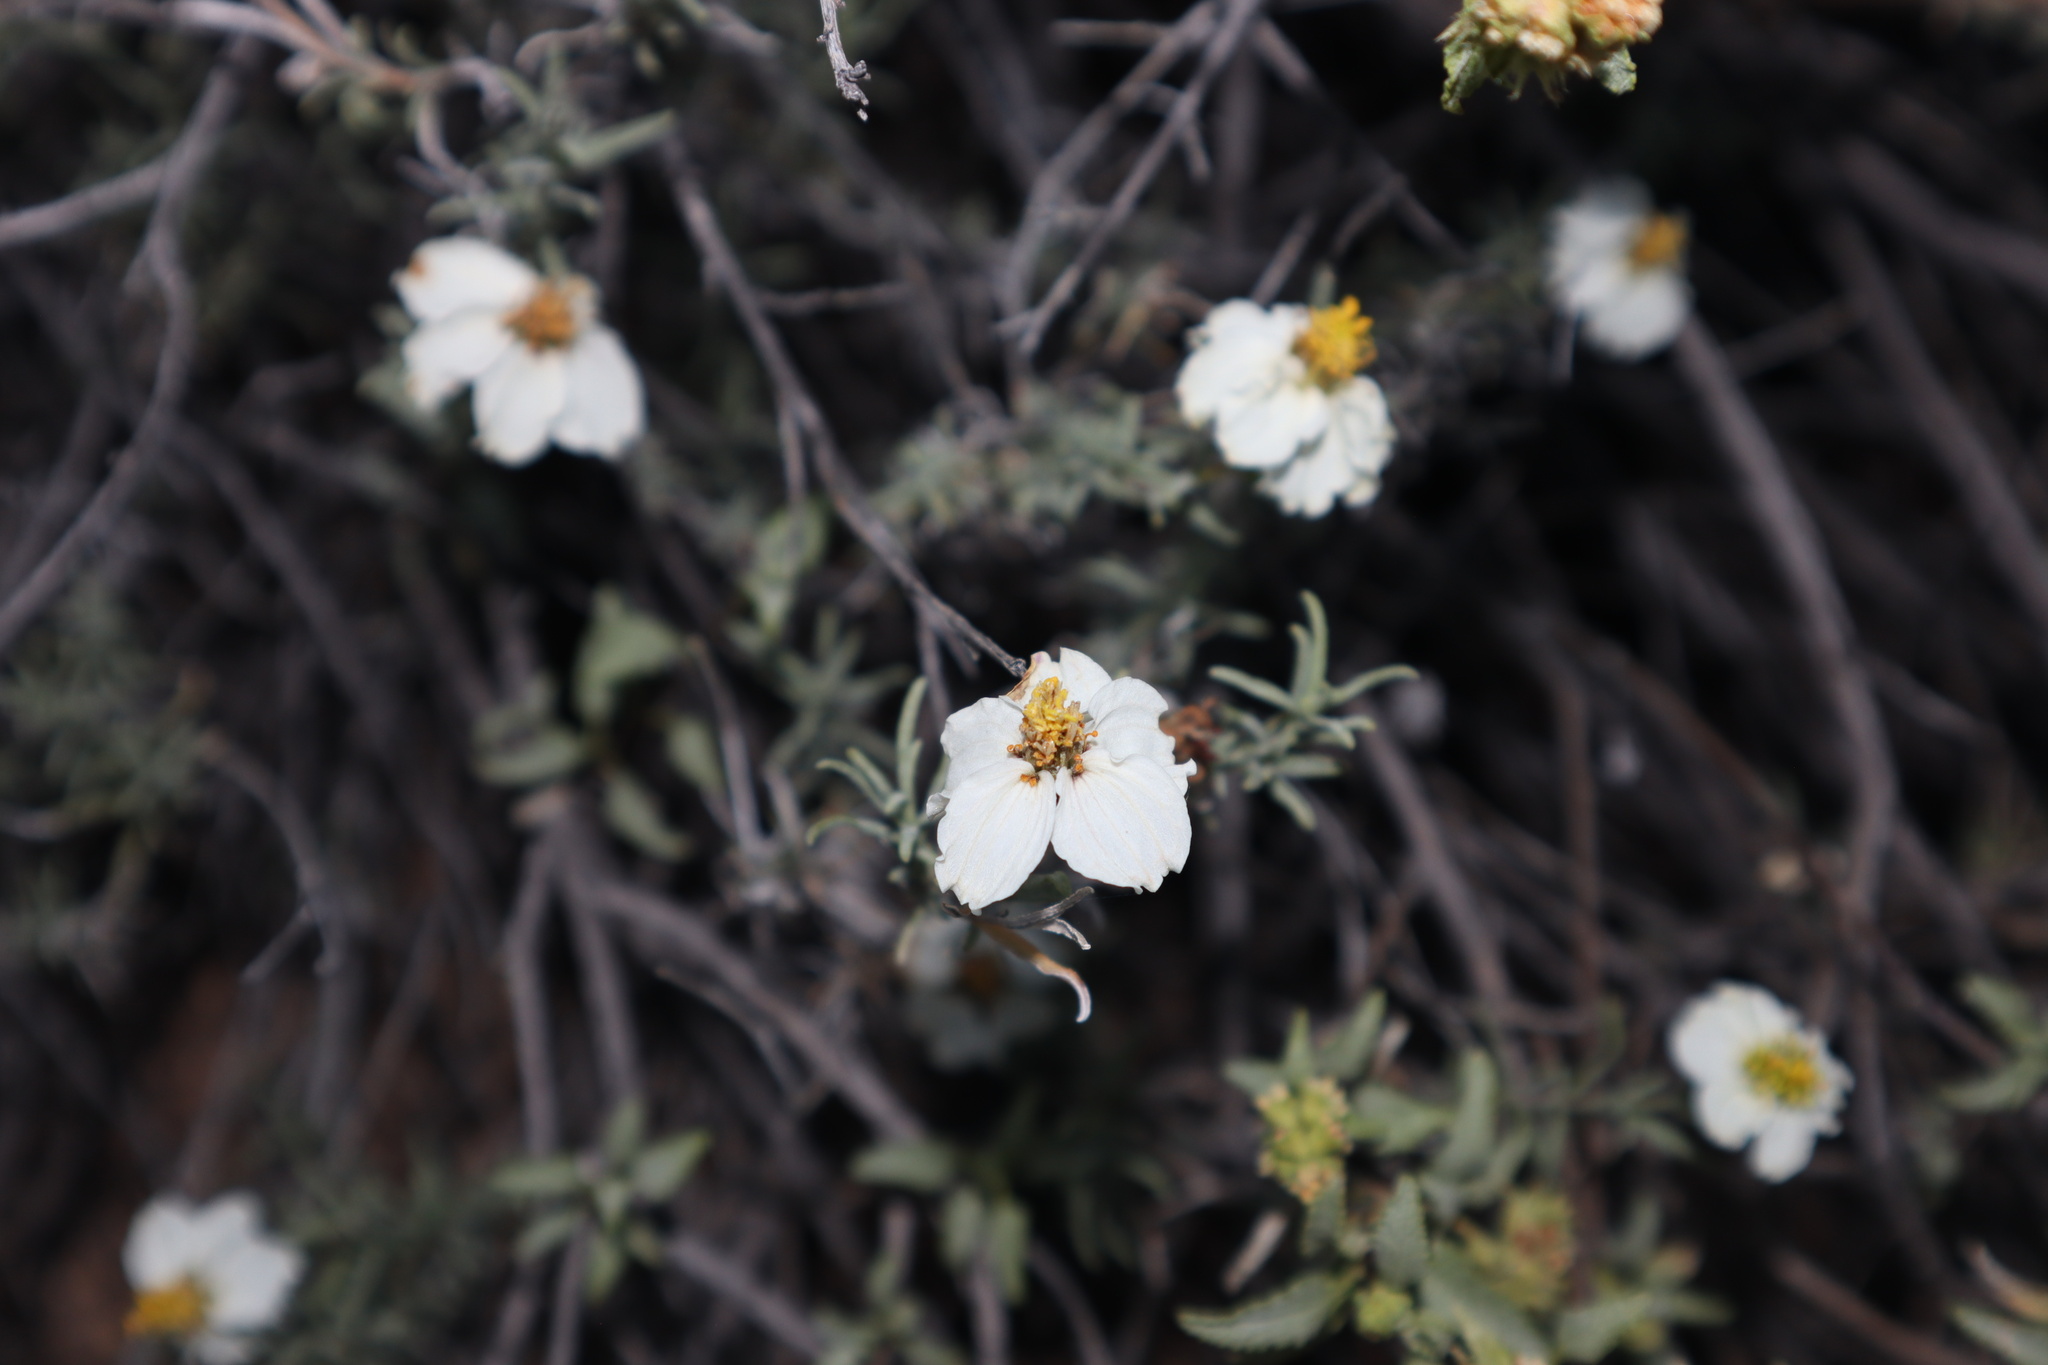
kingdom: Plantae
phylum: Tracheophyta
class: Magnoliopsida
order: Asterales
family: Asteraceae
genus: Zinnia
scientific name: Zinnia acerosa
